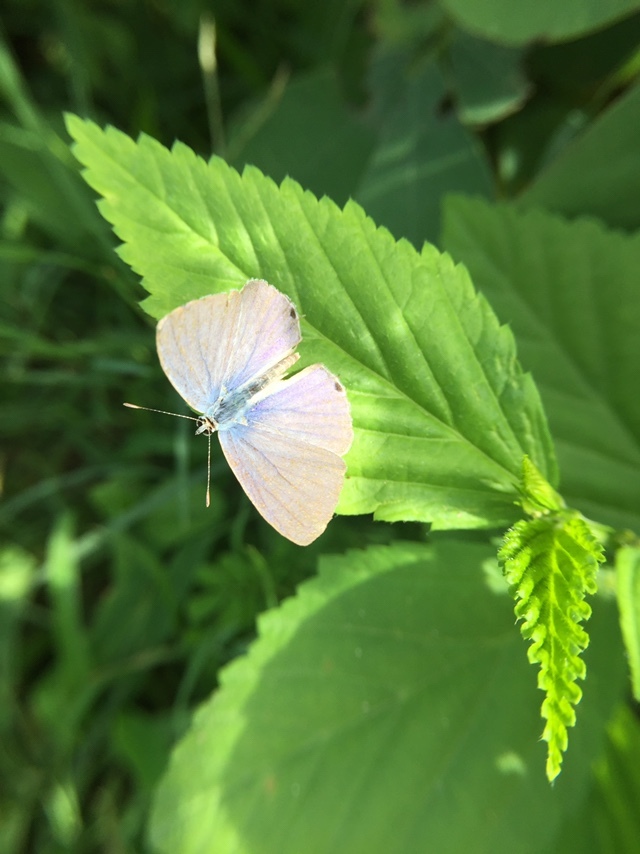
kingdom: Animalia
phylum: Arthropoda
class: Insecta
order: Lepidoptera
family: Lycaenidae
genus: Catochrysops
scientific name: Catochrysops strabo
